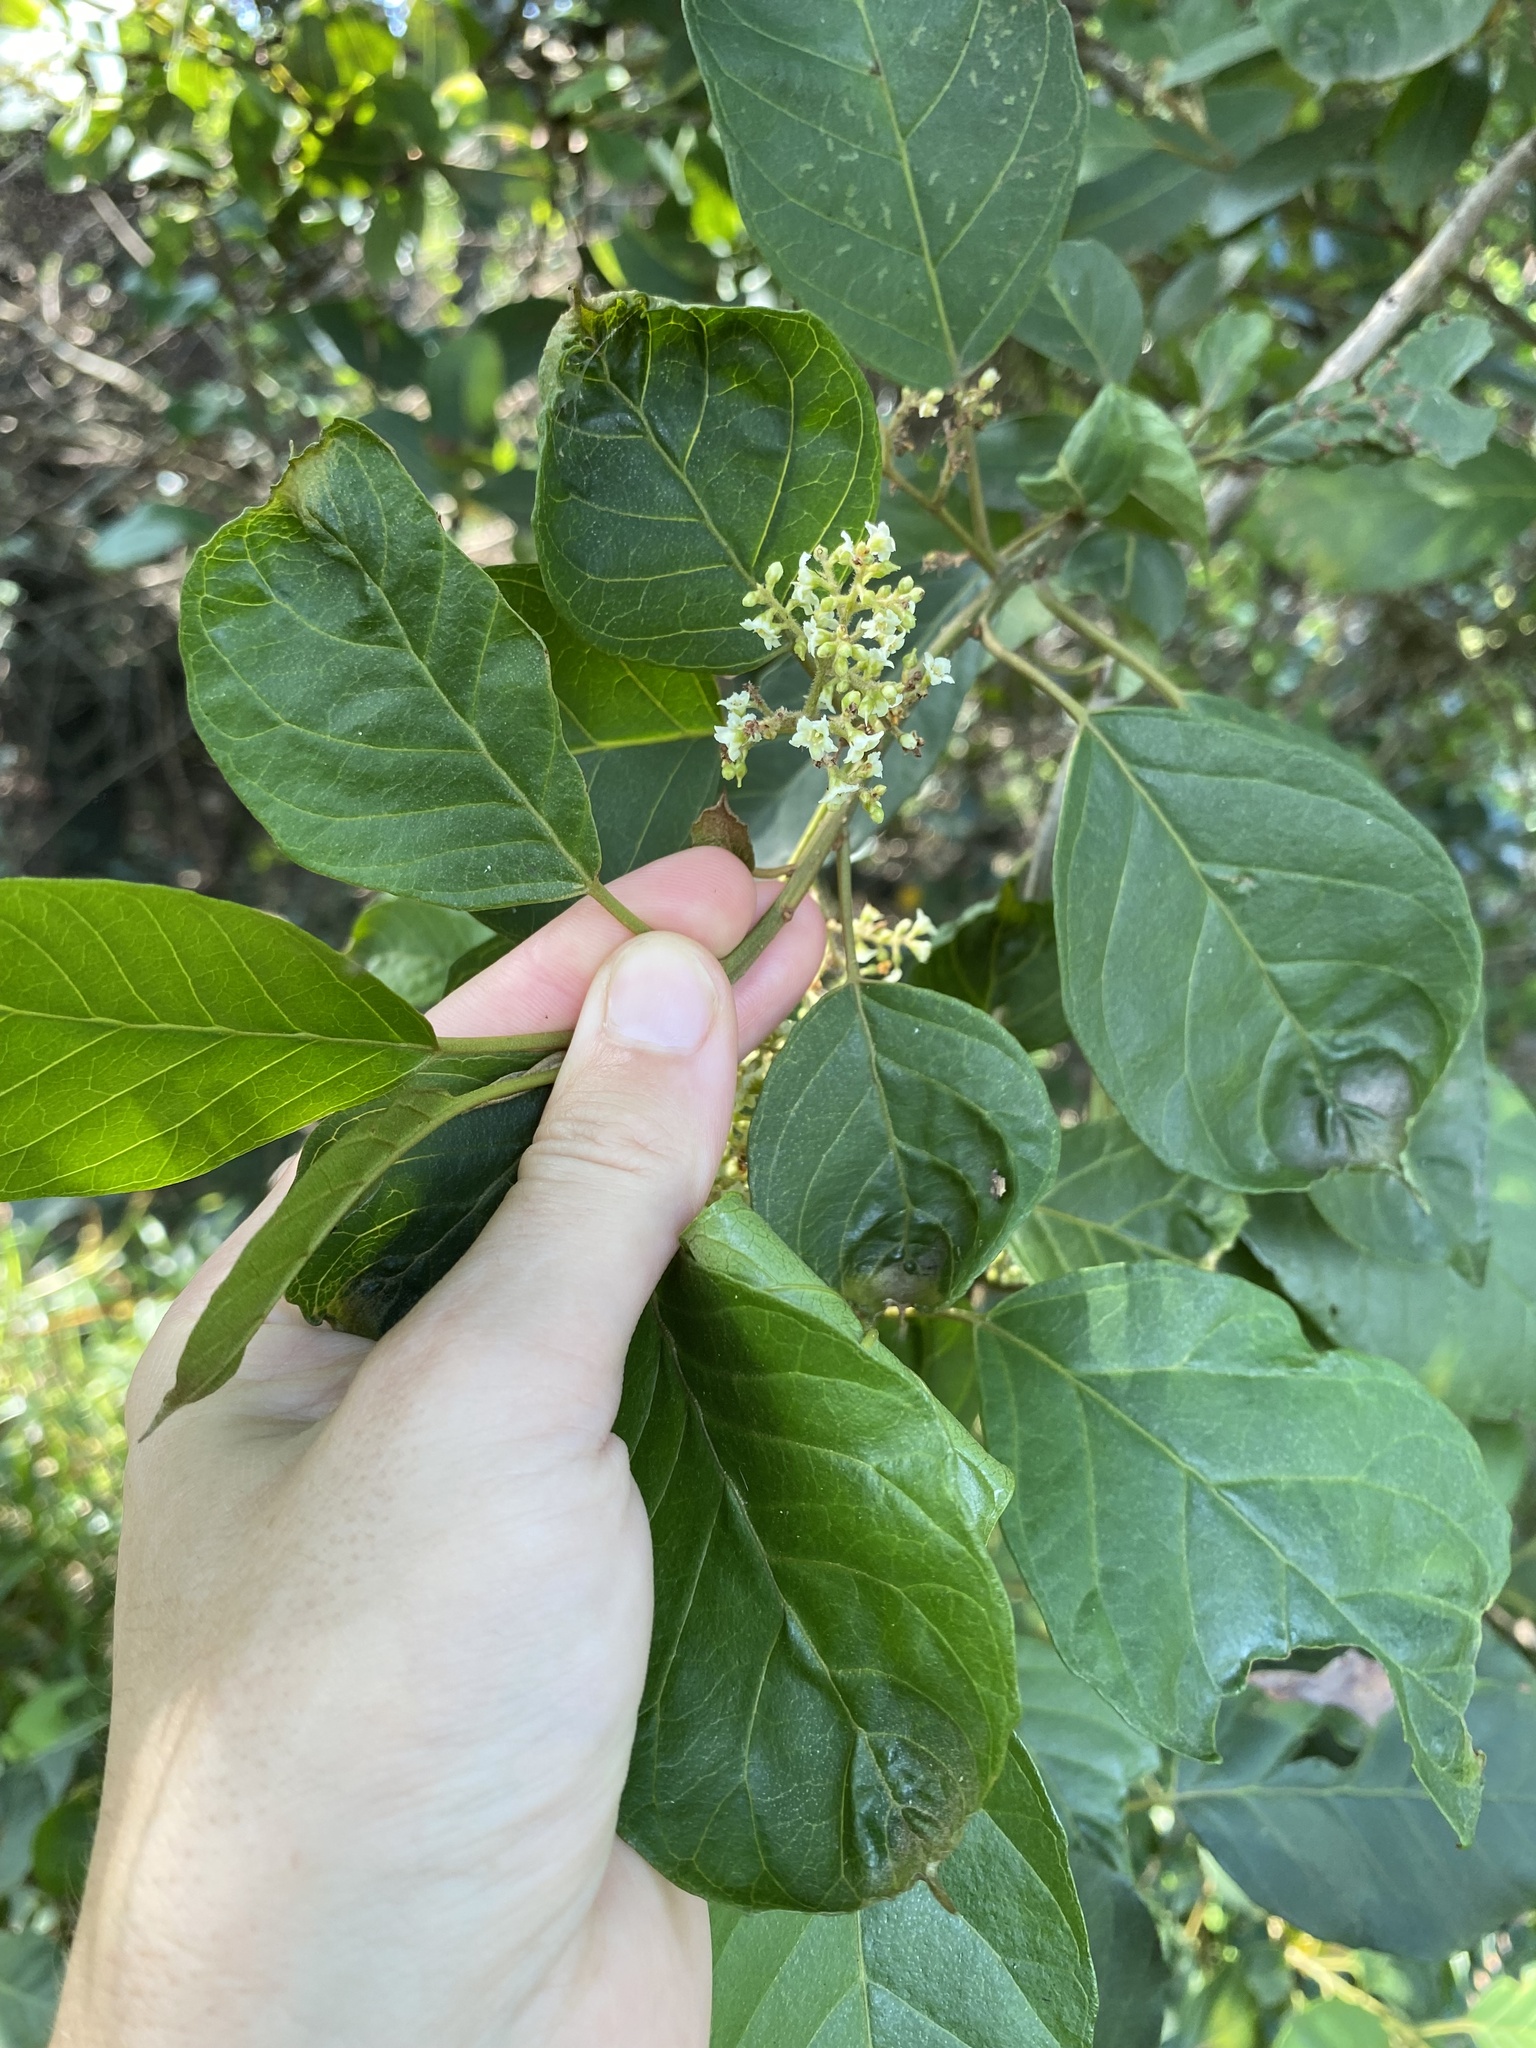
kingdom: Plantae
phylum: Tracheophyta
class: Magnoliopsida
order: Boraginales
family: Ehretiaceae
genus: Ehretia
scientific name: Ehretia amoena
